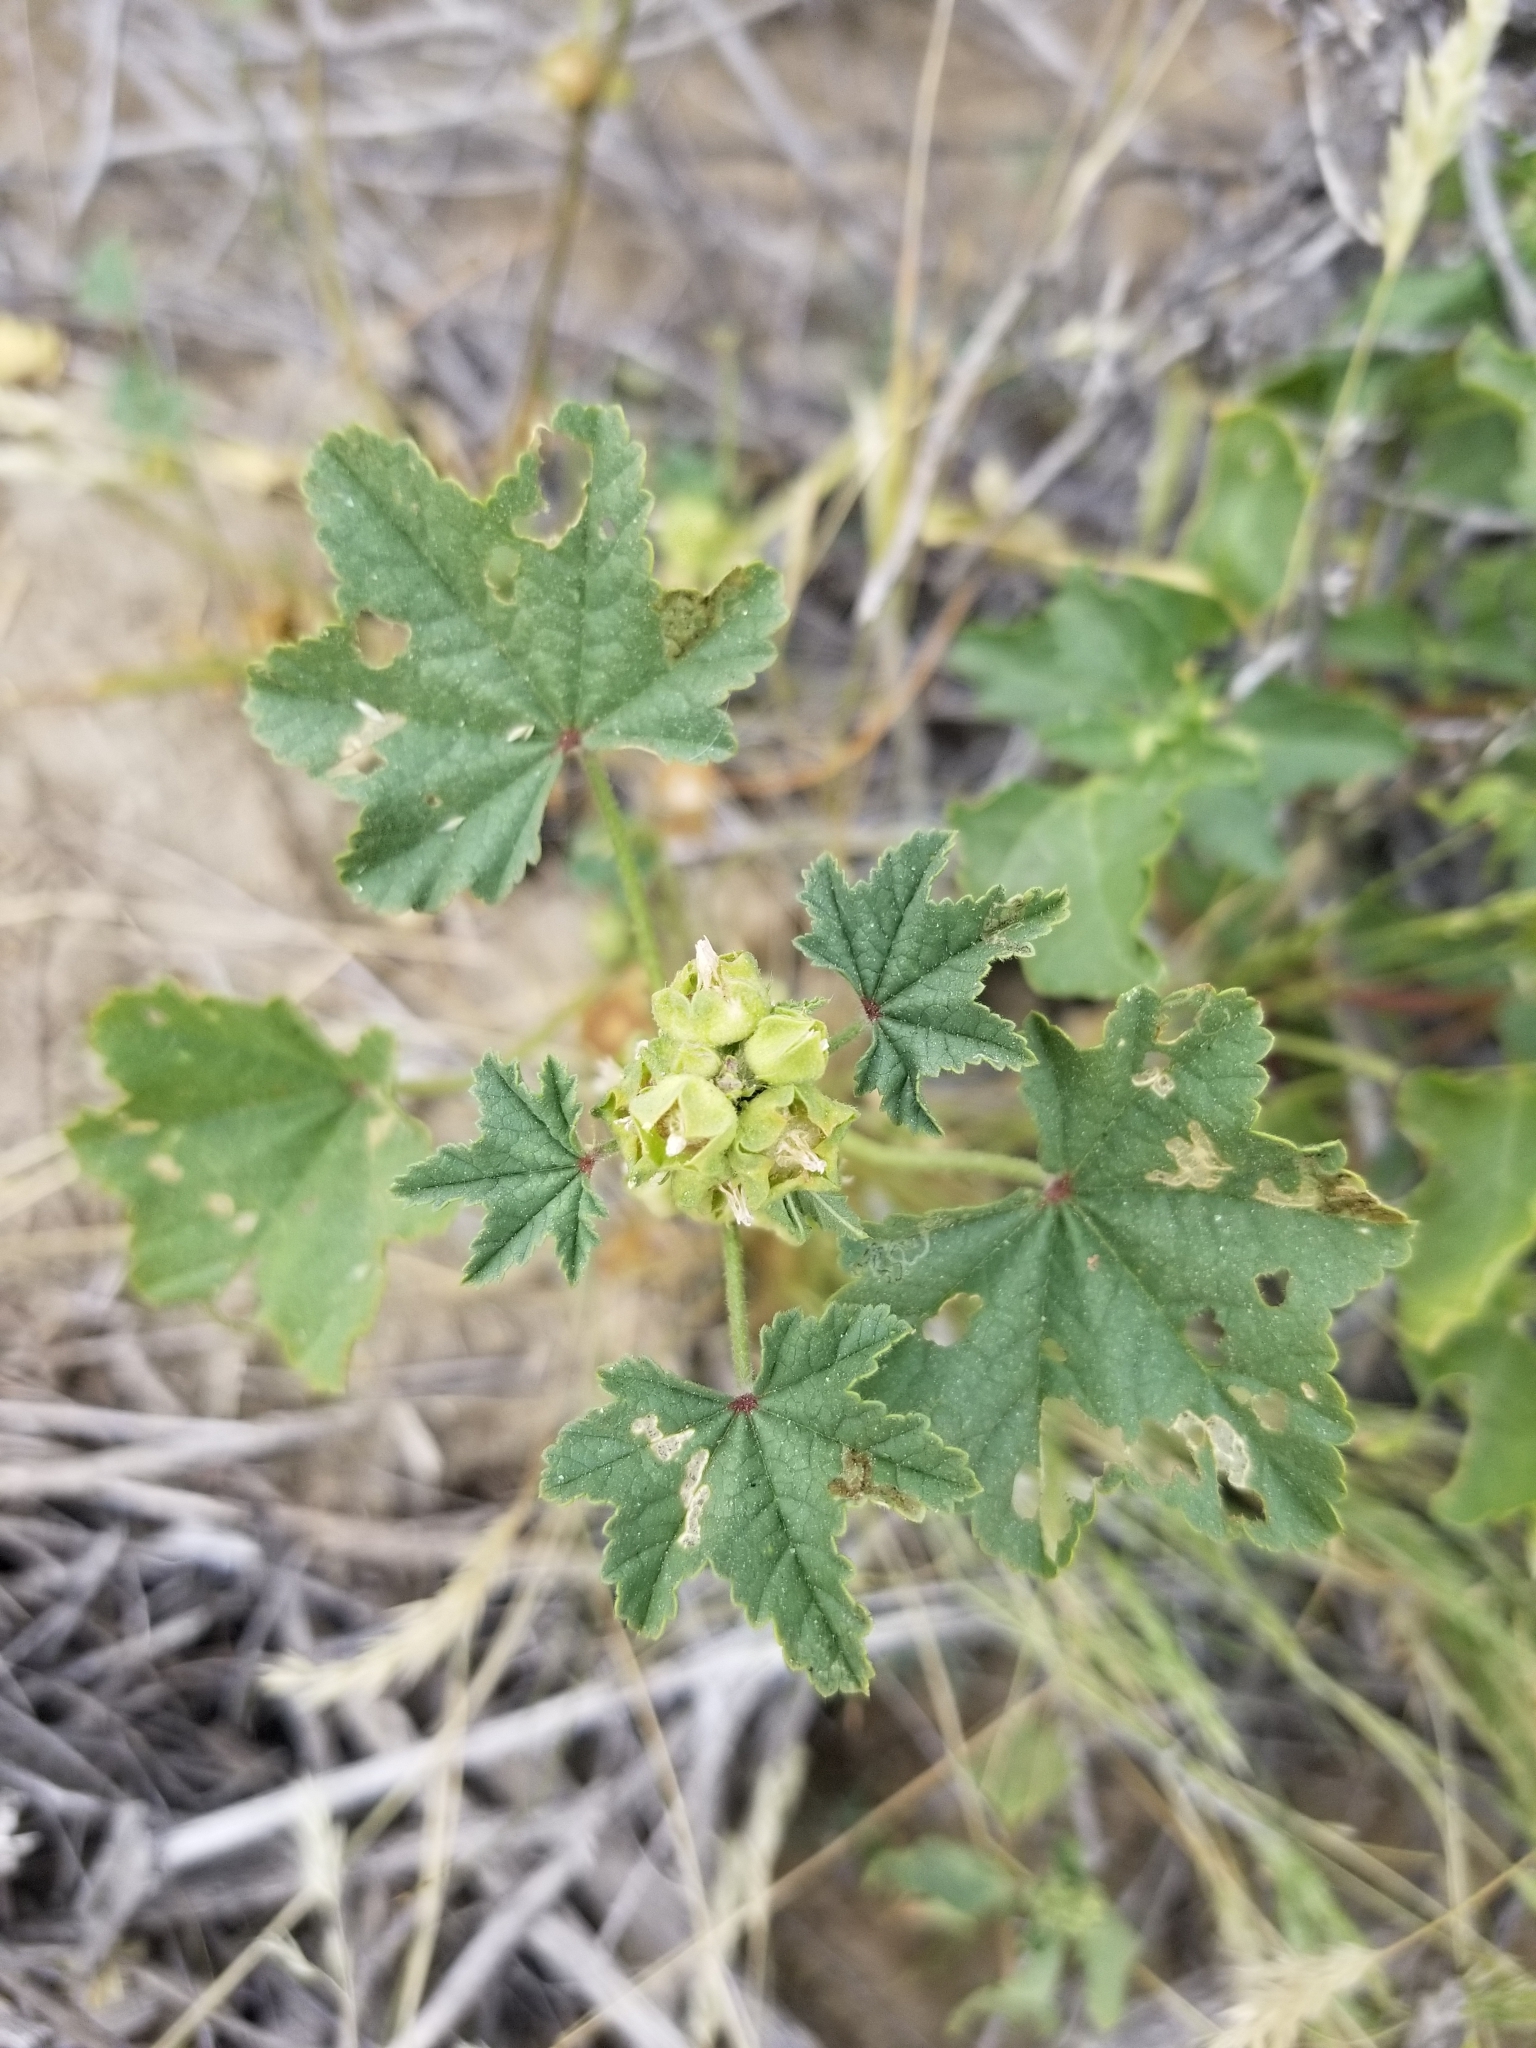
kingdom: Plantae
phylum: Tracheophyta
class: Magnoliopsida
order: Malvales
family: Malvaceae
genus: Malva
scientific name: Malva parviflora
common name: Least mallow
